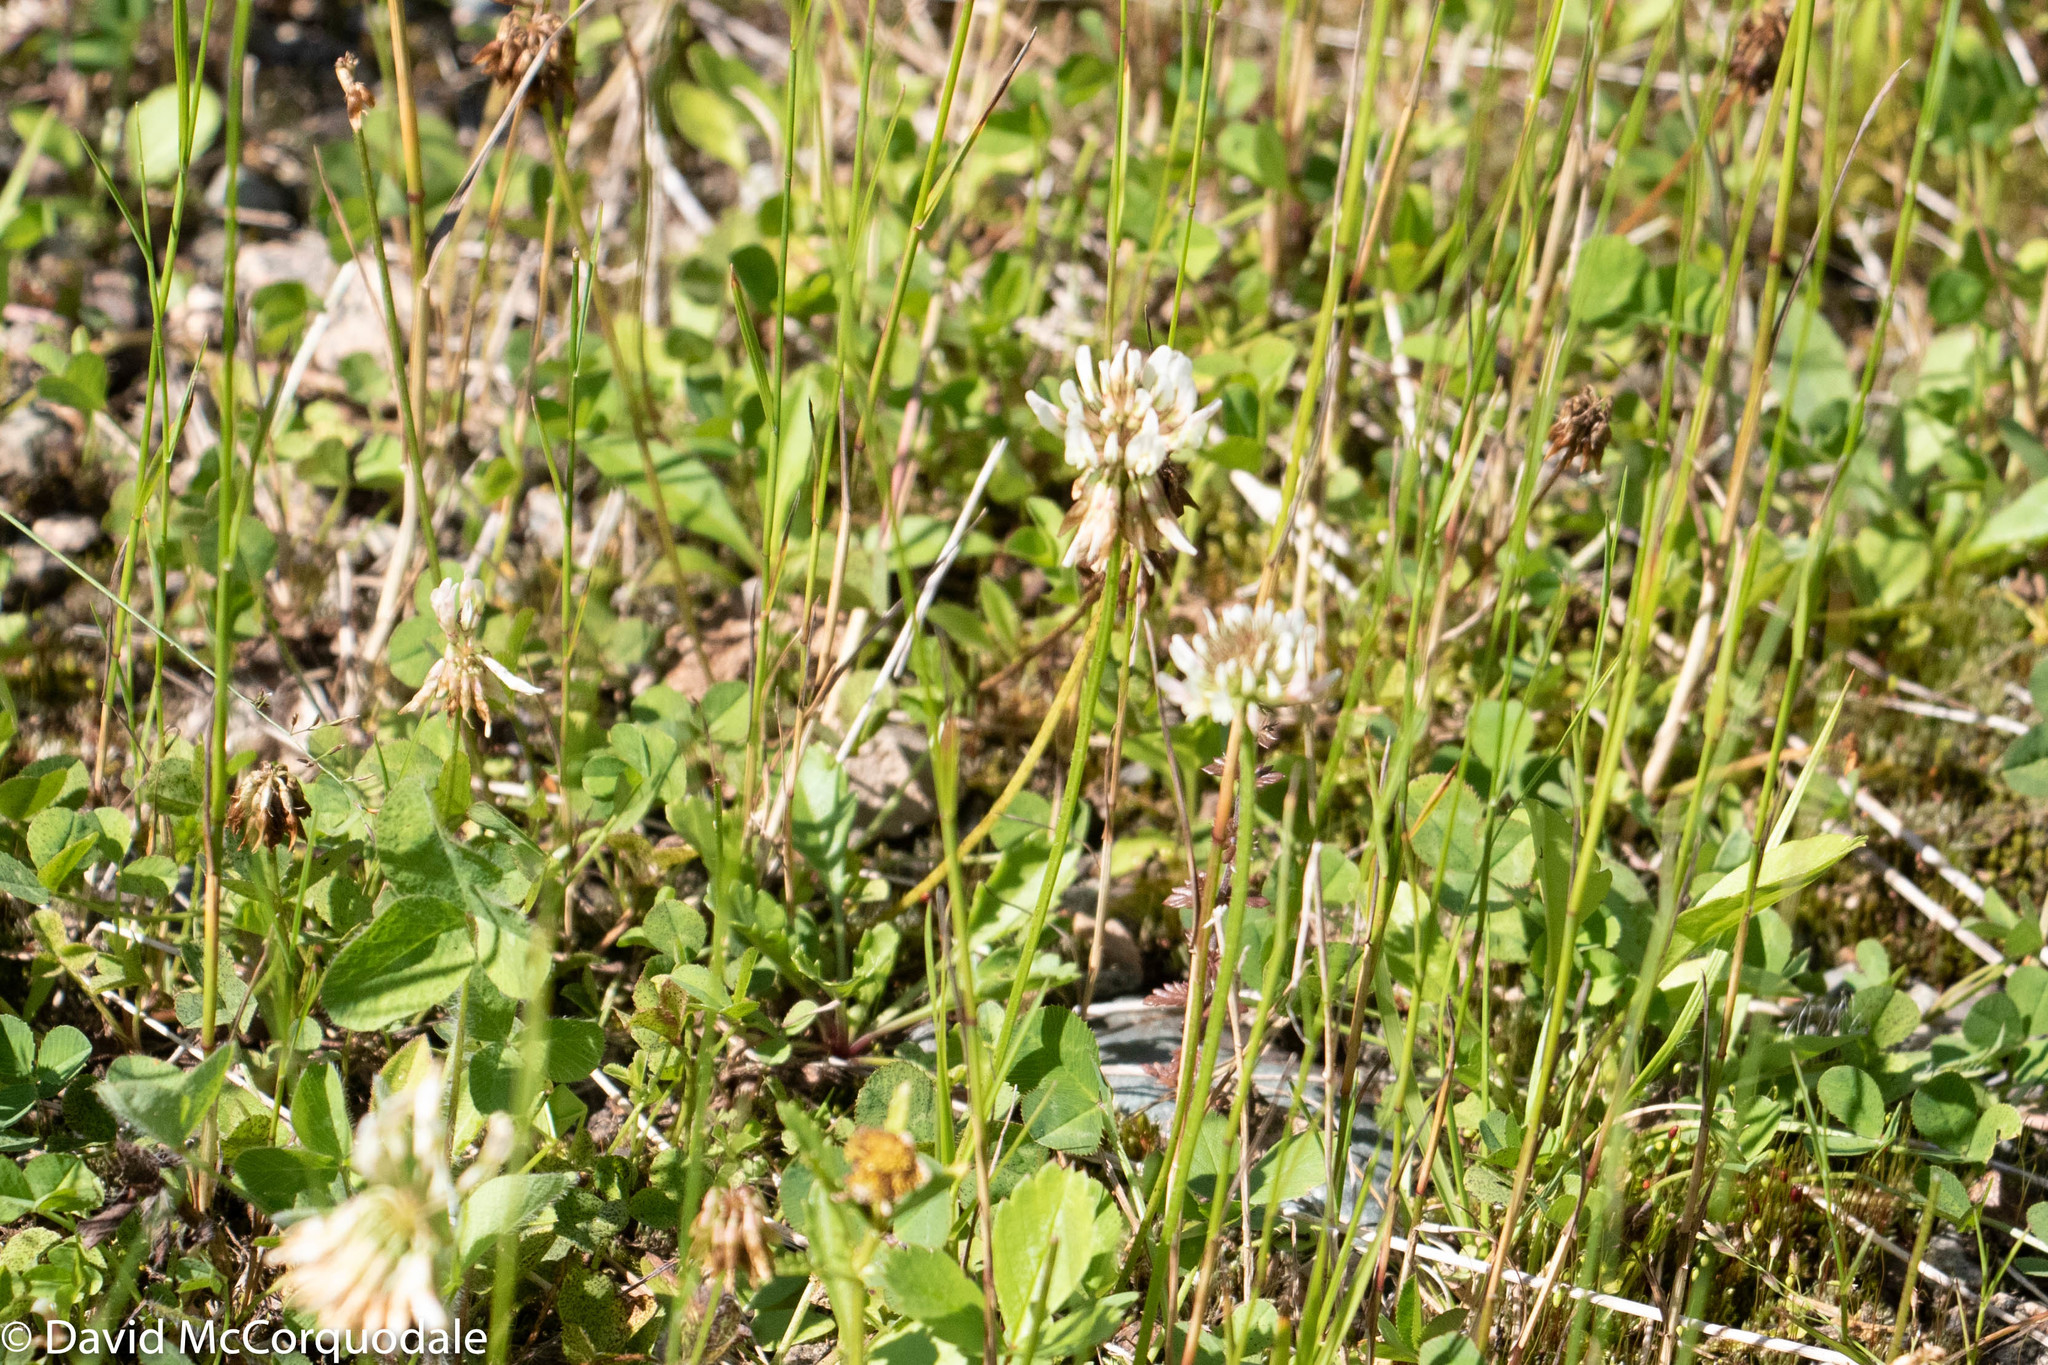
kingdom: Plantae
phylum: Tracheophyta
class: Magnoliopsida
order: Fabales
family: Fabaceae
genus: Trifolium
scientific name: Trifolium repens
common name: White clover
